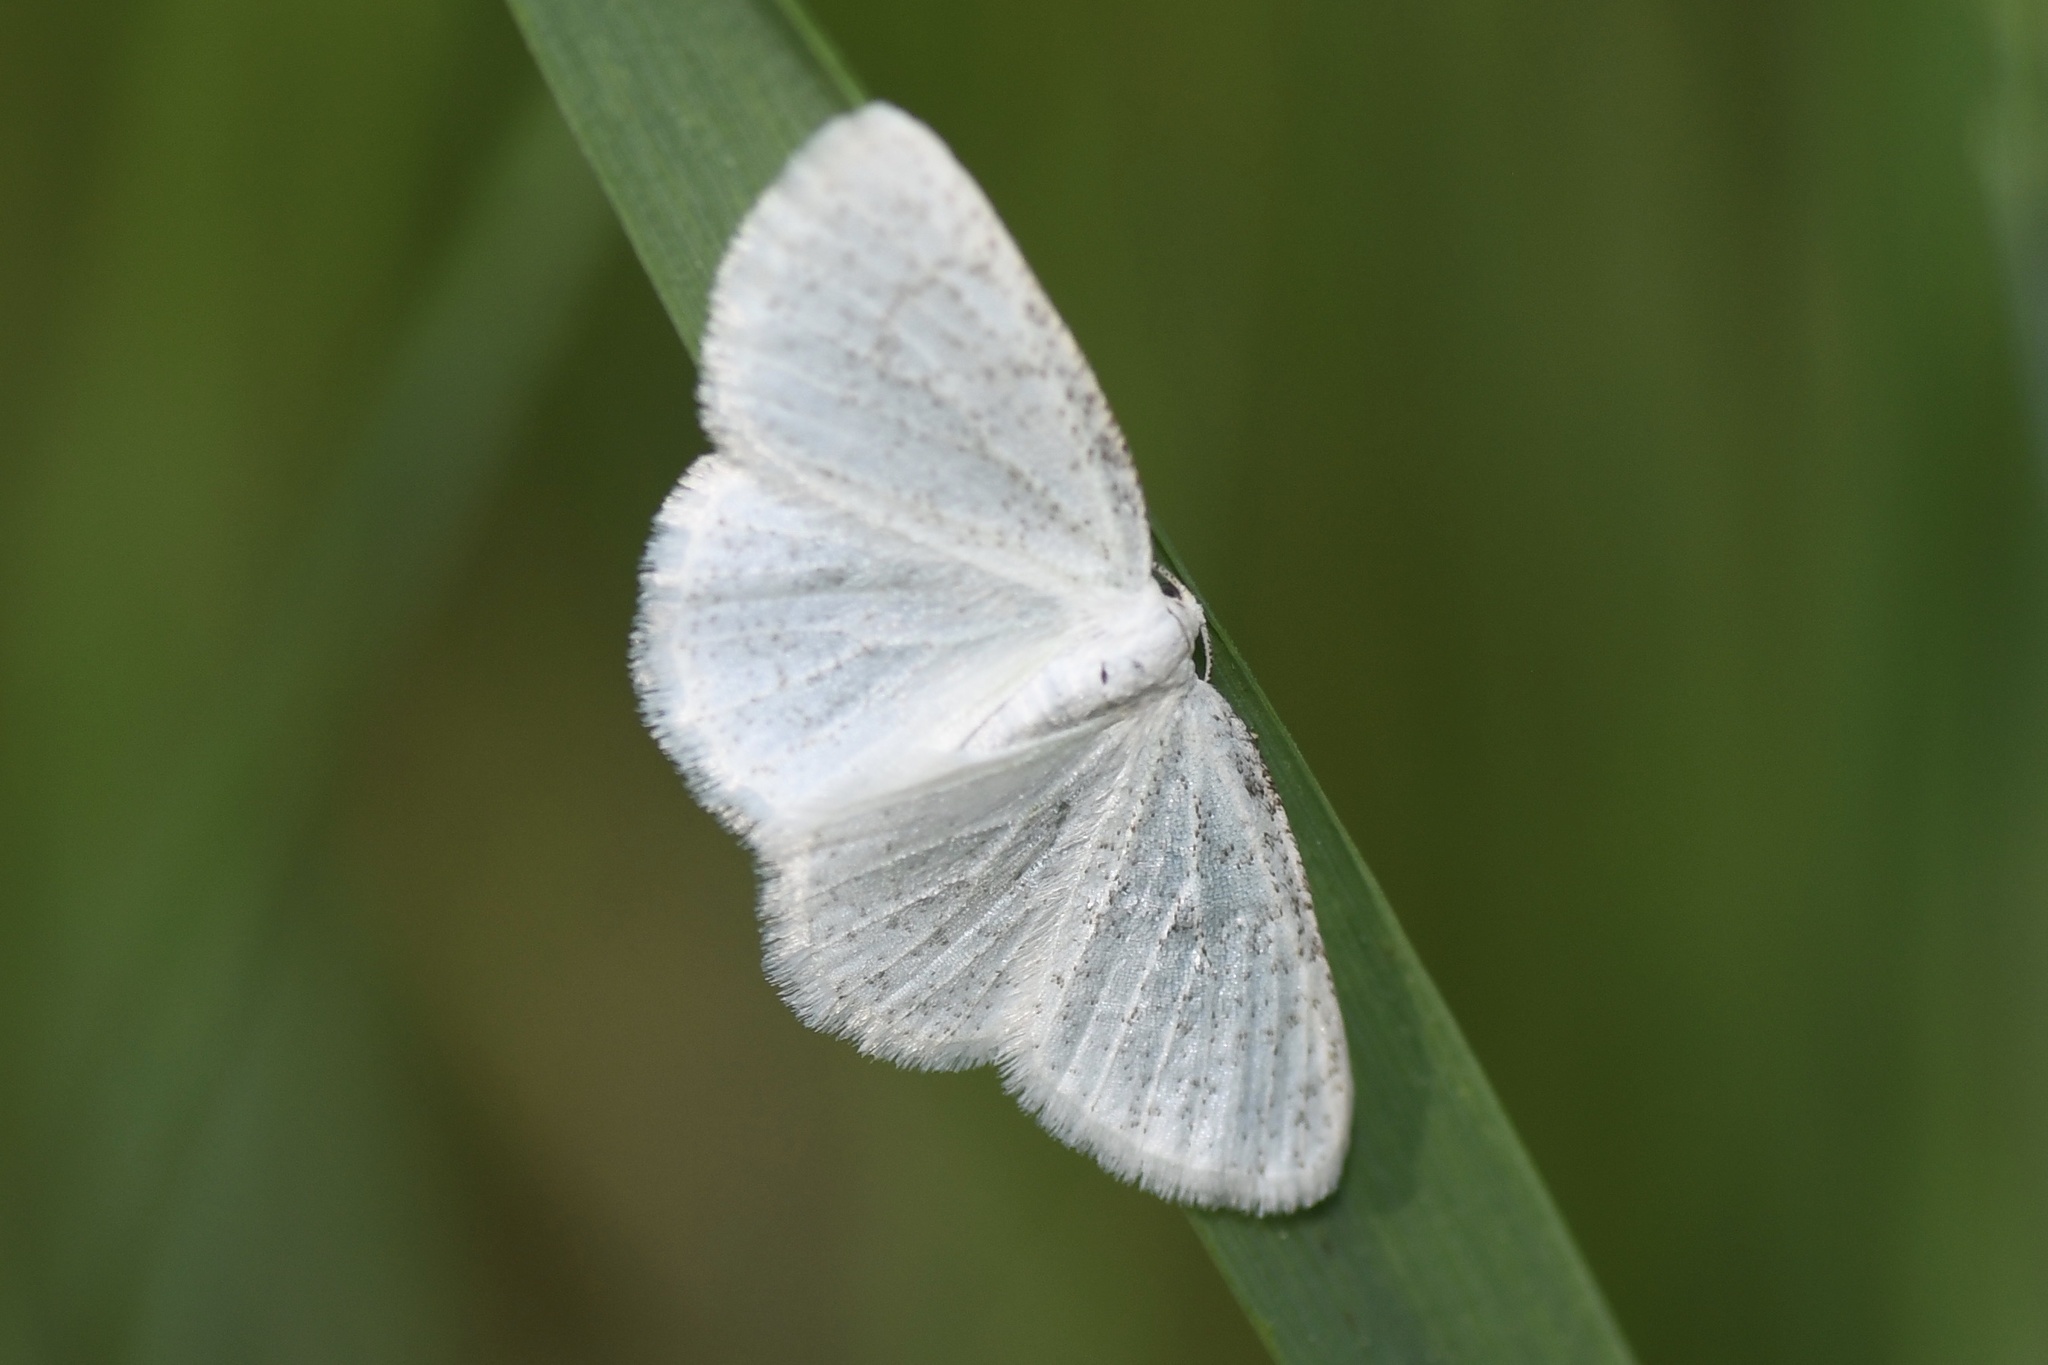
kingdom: Animalia
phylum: Arthropoda
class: Insecta
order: Lepidoptera
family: Geometridae
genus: Cabera
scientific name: Cabera variolaria
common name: Pink-striped willow spanworm
